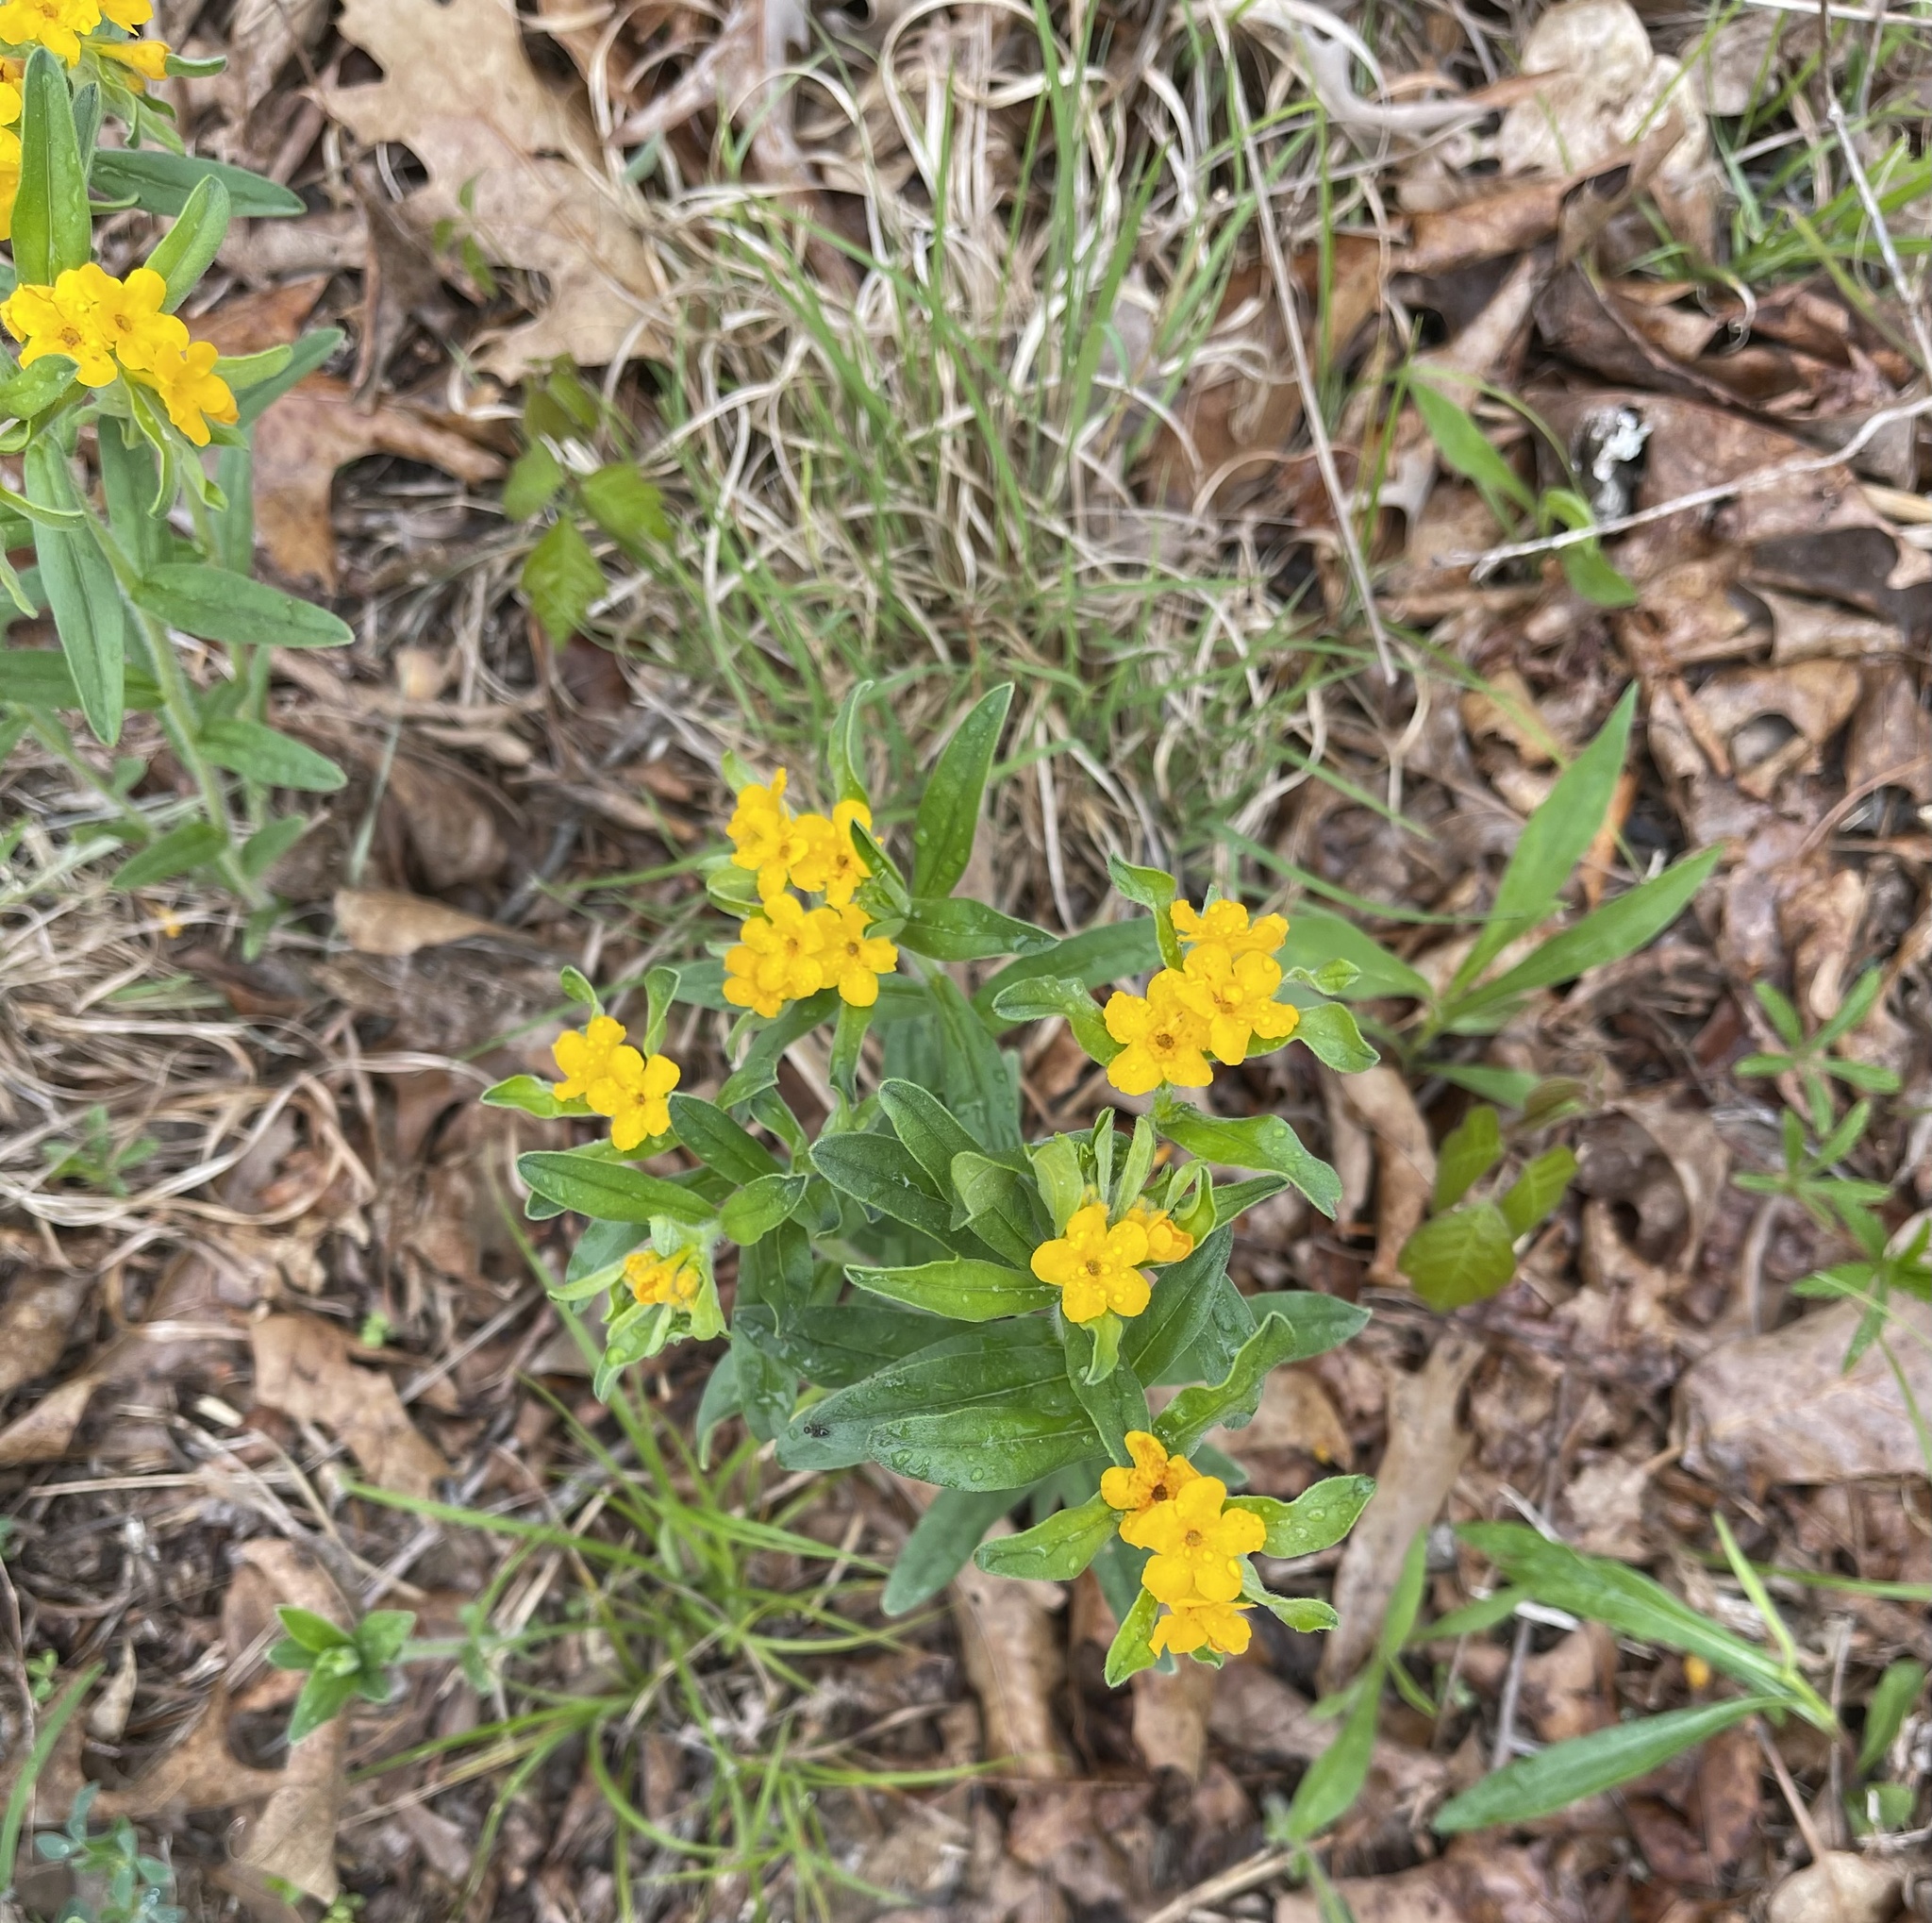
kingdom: Plantae
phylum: Tracheophyta
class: Magnoliopsida
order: Boraginales
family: Boraginaceae
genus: Lithospermum
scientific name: Lithospermum canescens
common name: Hoary puccoon
